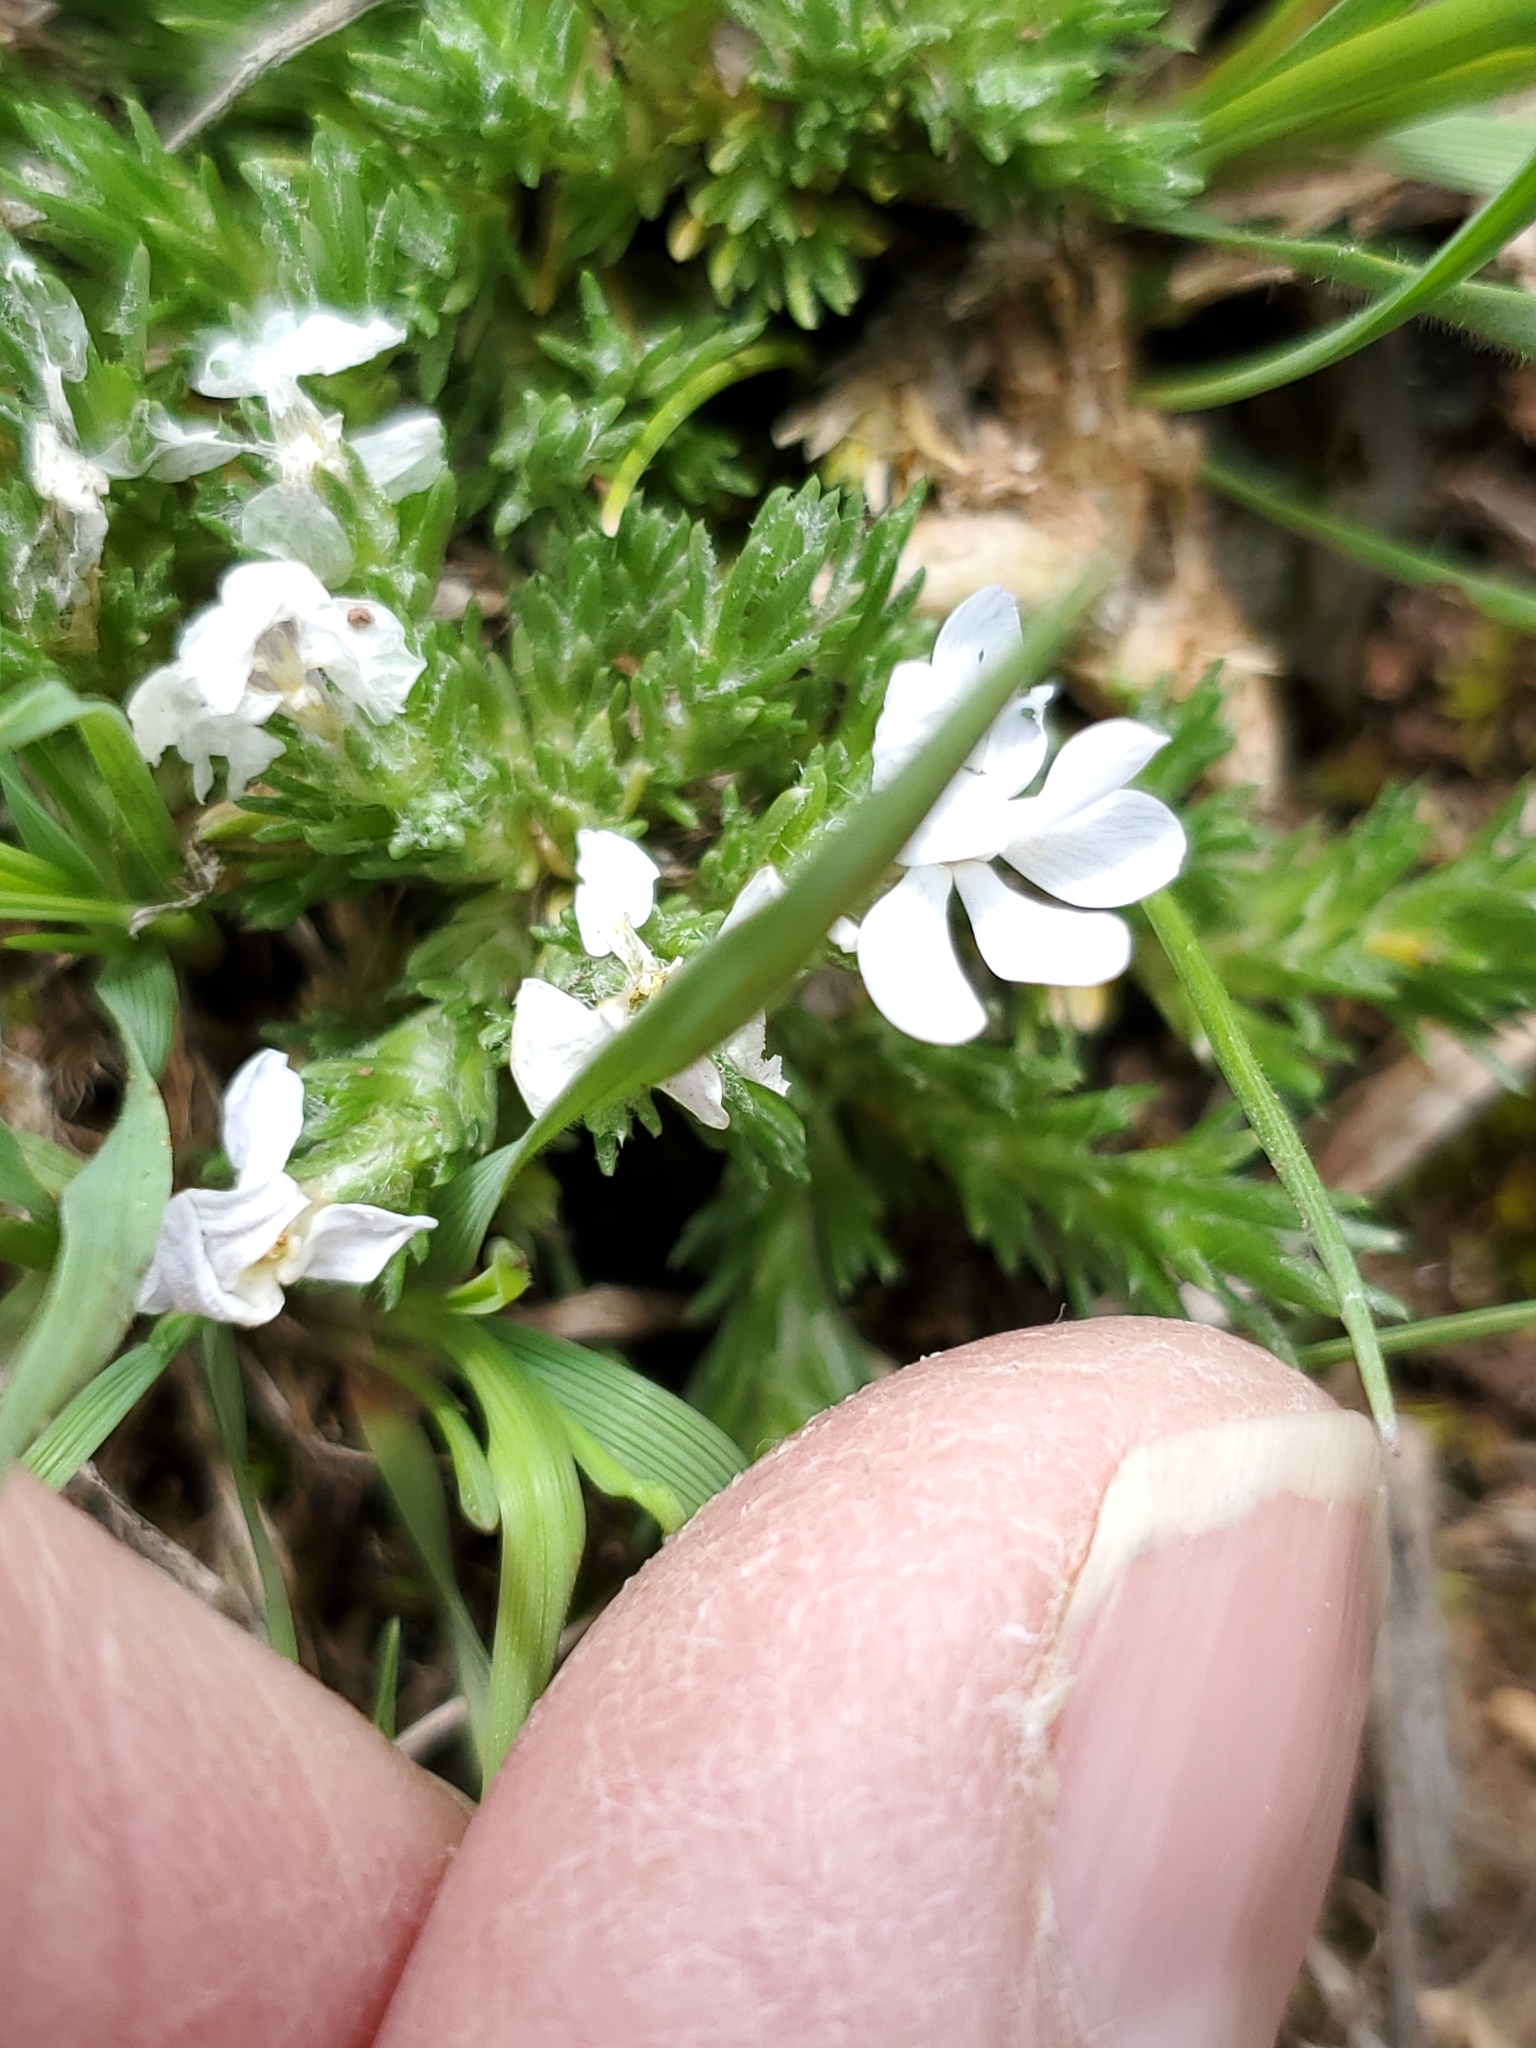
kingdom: Plantae
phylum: Tracheophyta
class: Magnoliopsida
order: Ericales
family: Polemoniaceae
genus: Phlox
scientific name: Phlox hoodii
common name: Moss phlox
